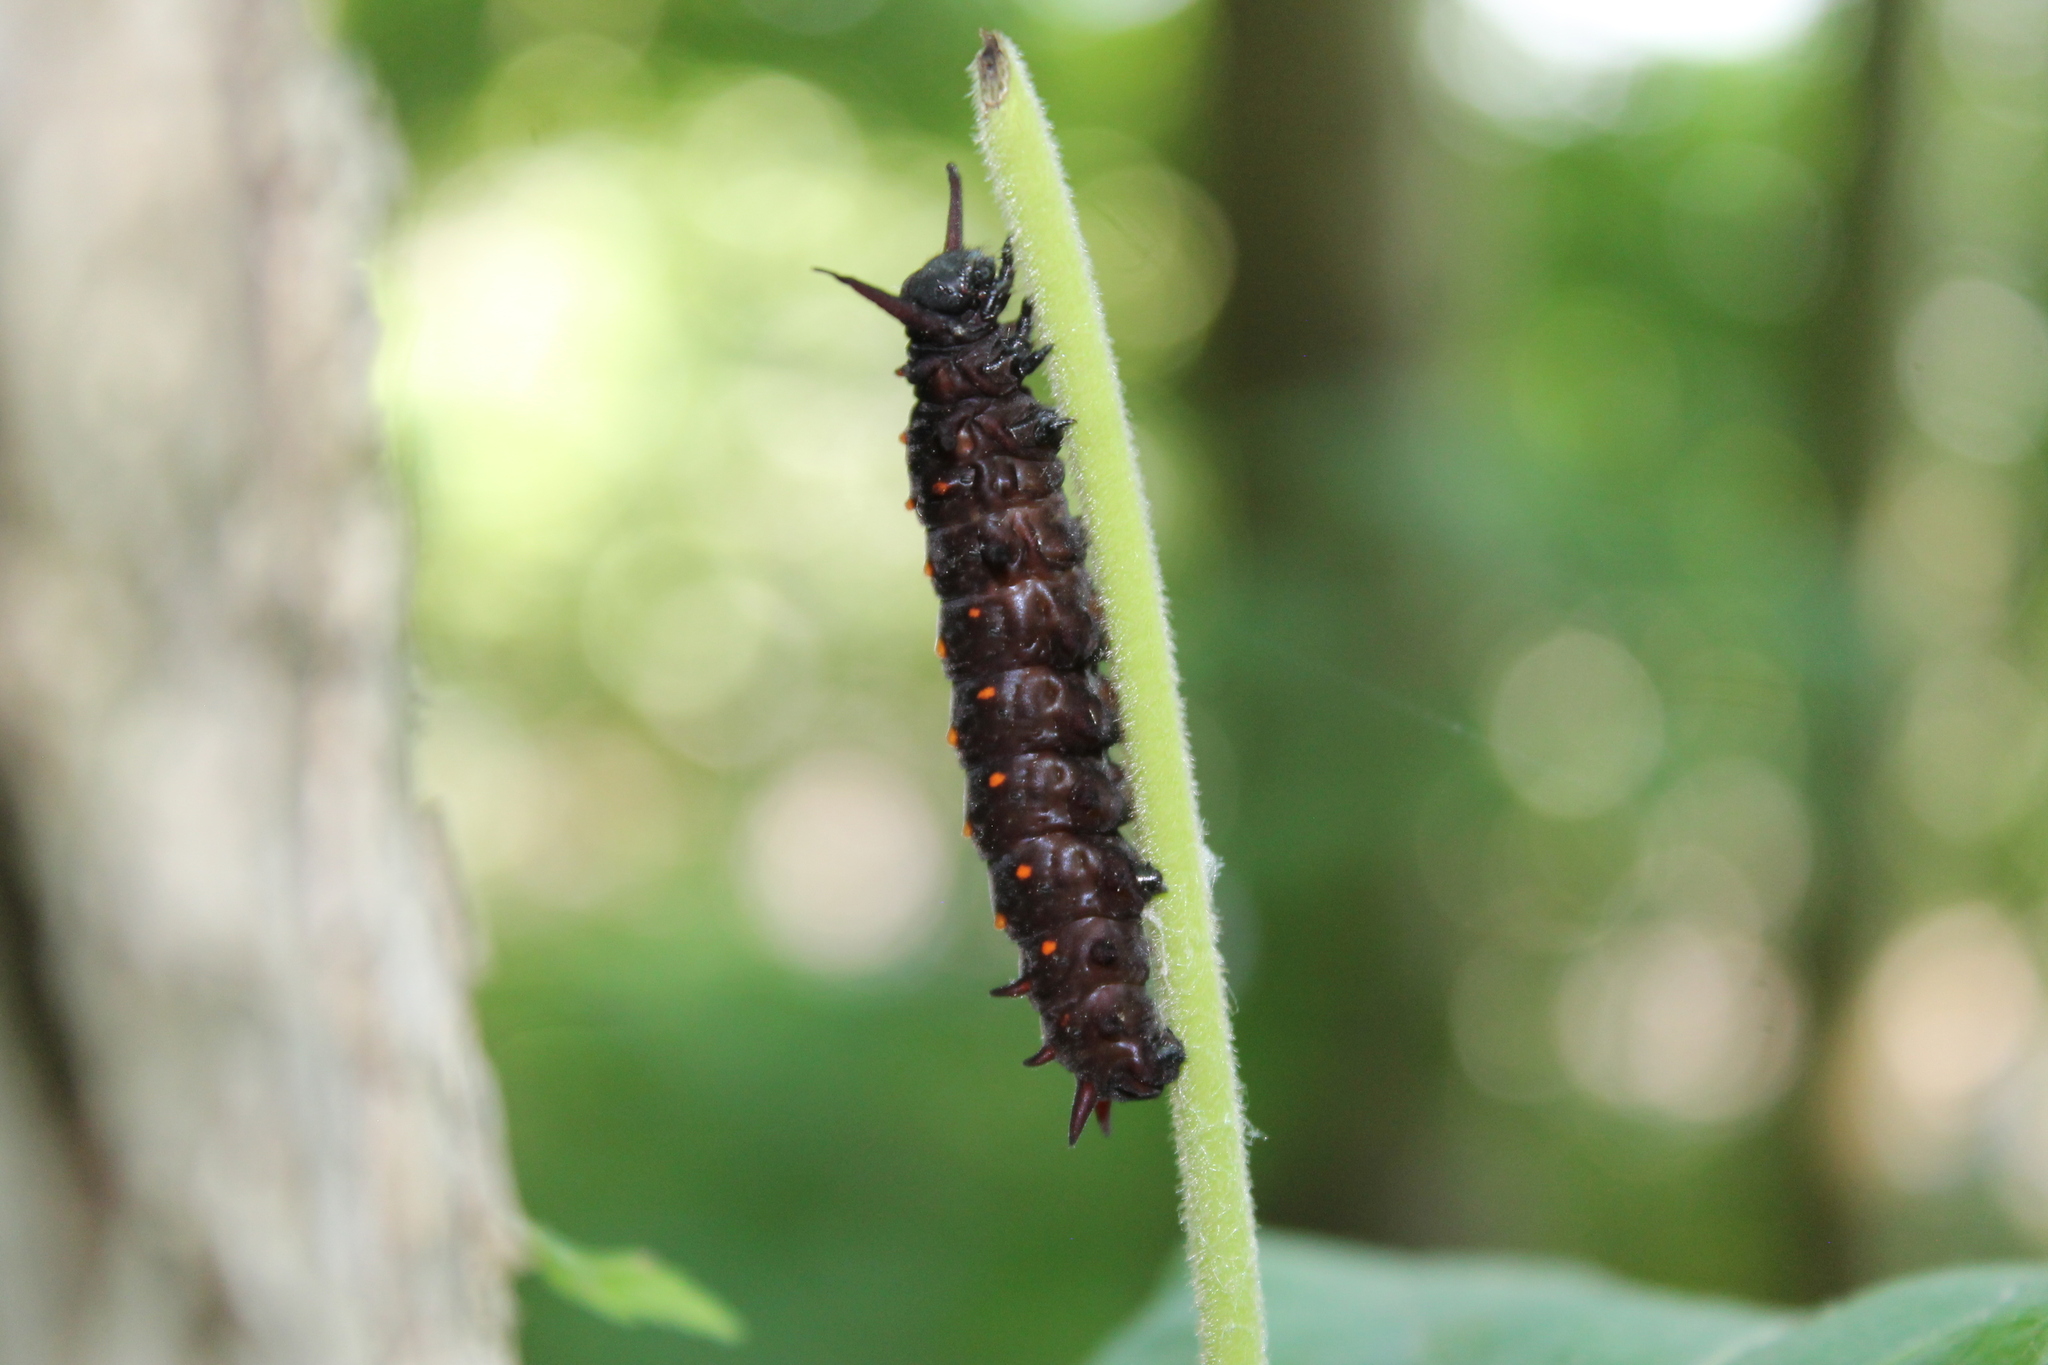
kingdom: Animalia
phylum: Arthropoda
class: Insecta
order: Lepidoptera
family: Papilionidae
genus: Battus
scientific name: Battus philenor
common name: Pipevine swallowtail
